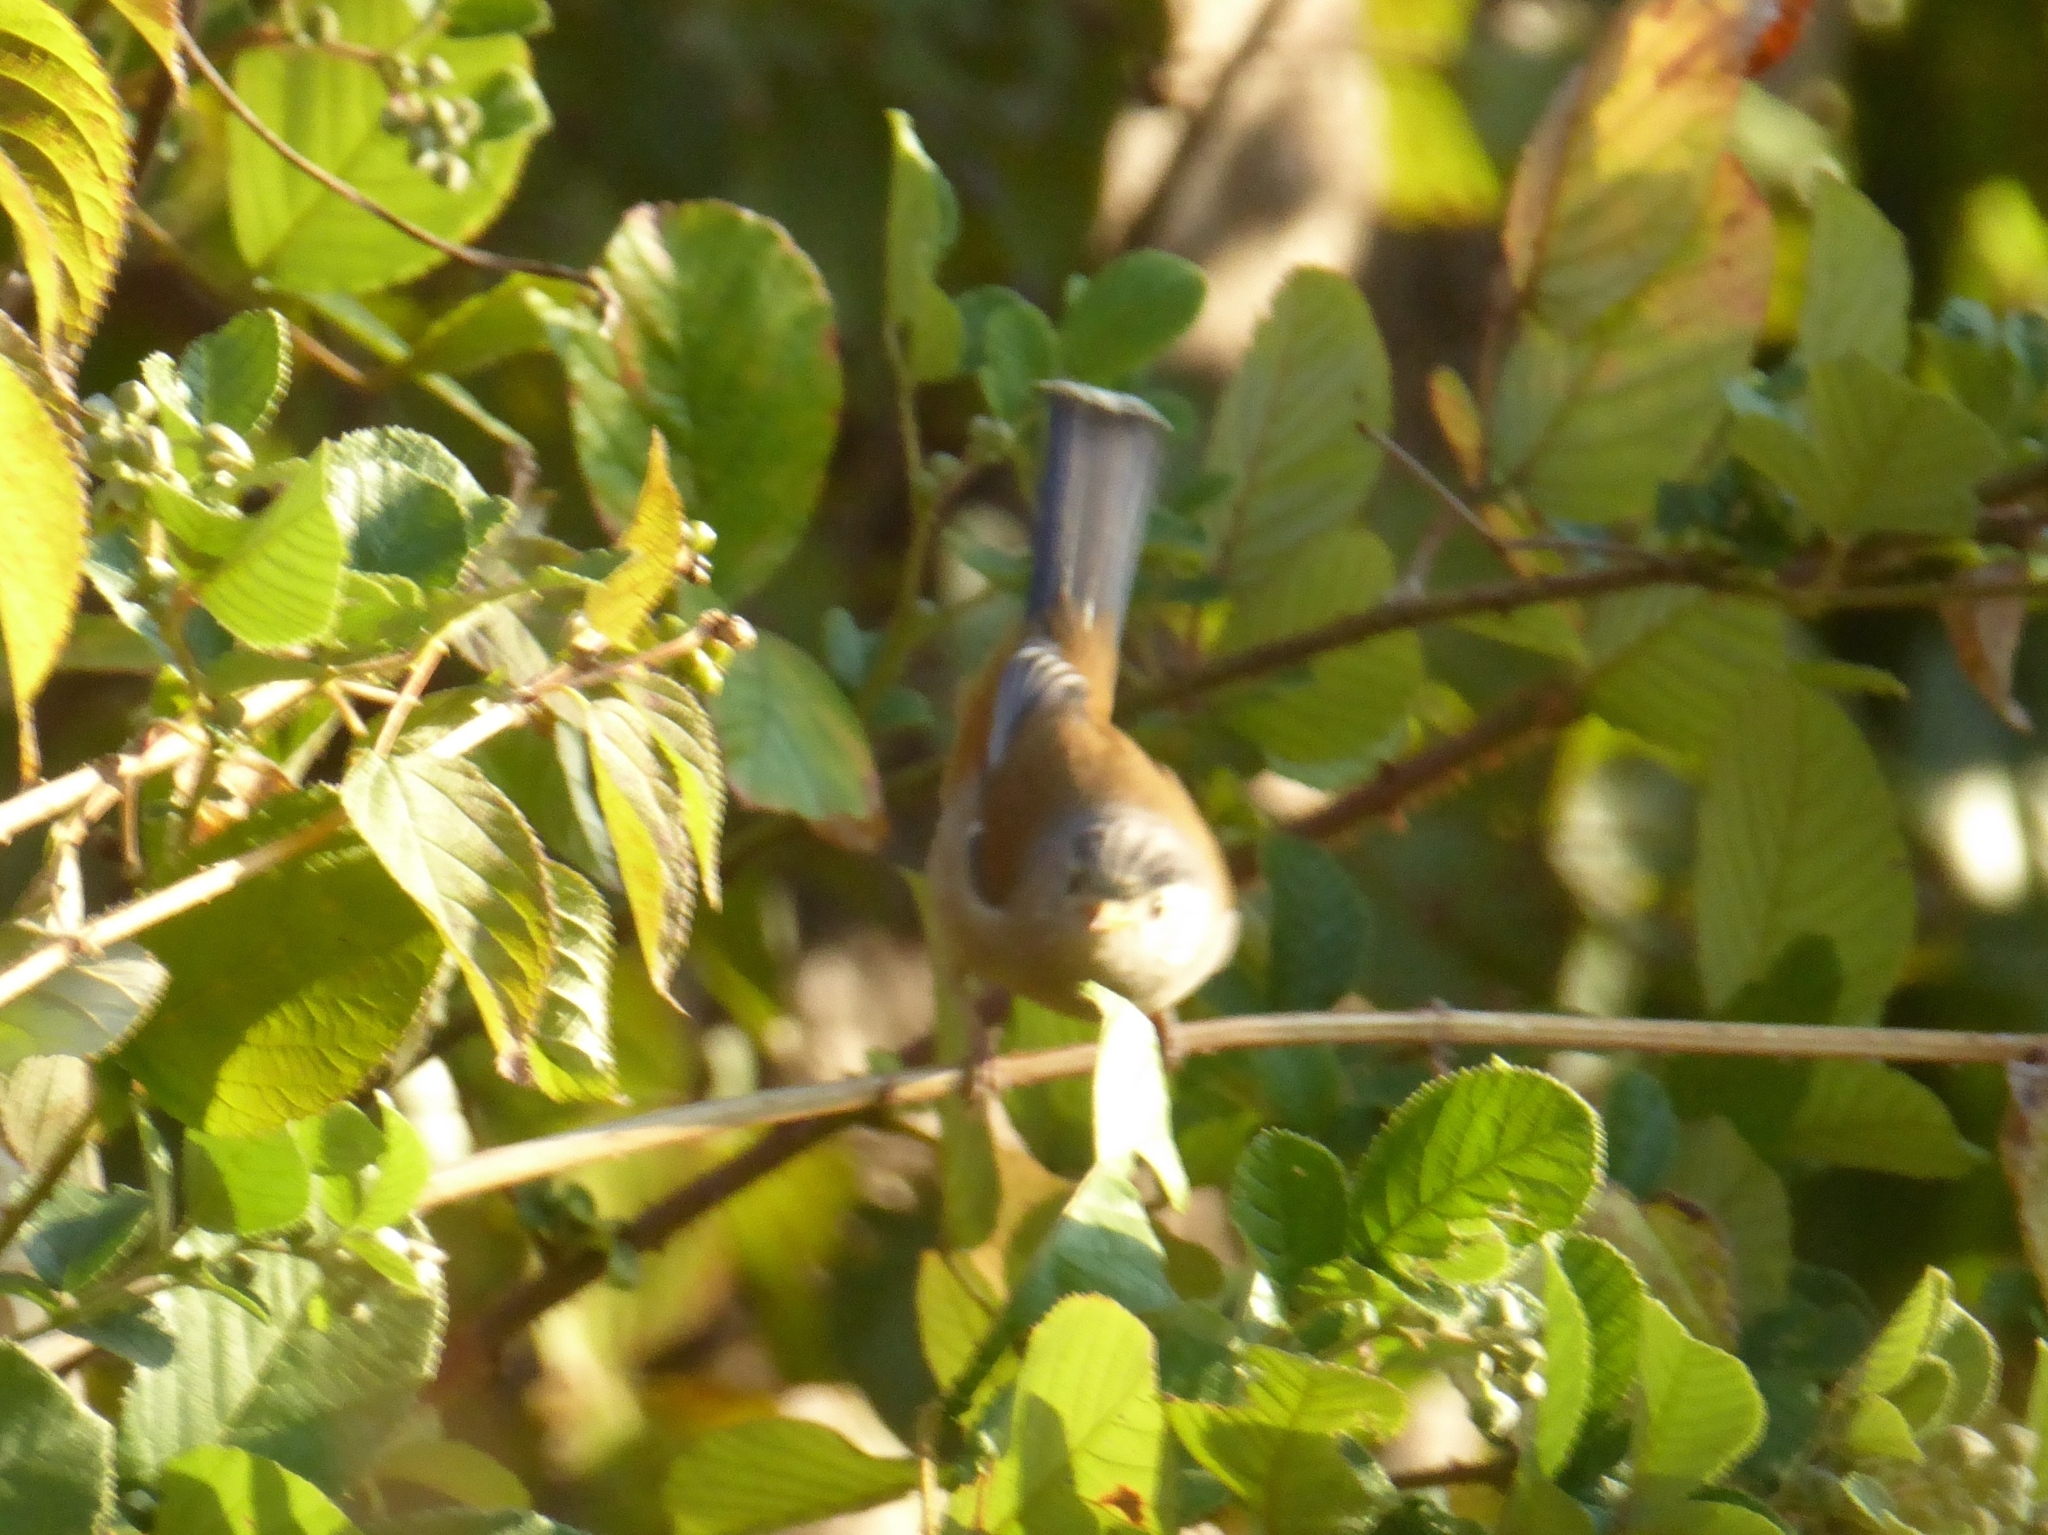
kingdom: Animalia
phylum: Chordata
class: Aves
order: Passeriformes
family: Leiothrichidae
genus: Minla
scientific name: Minla cyanouroptera
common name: Blue-winged minla
